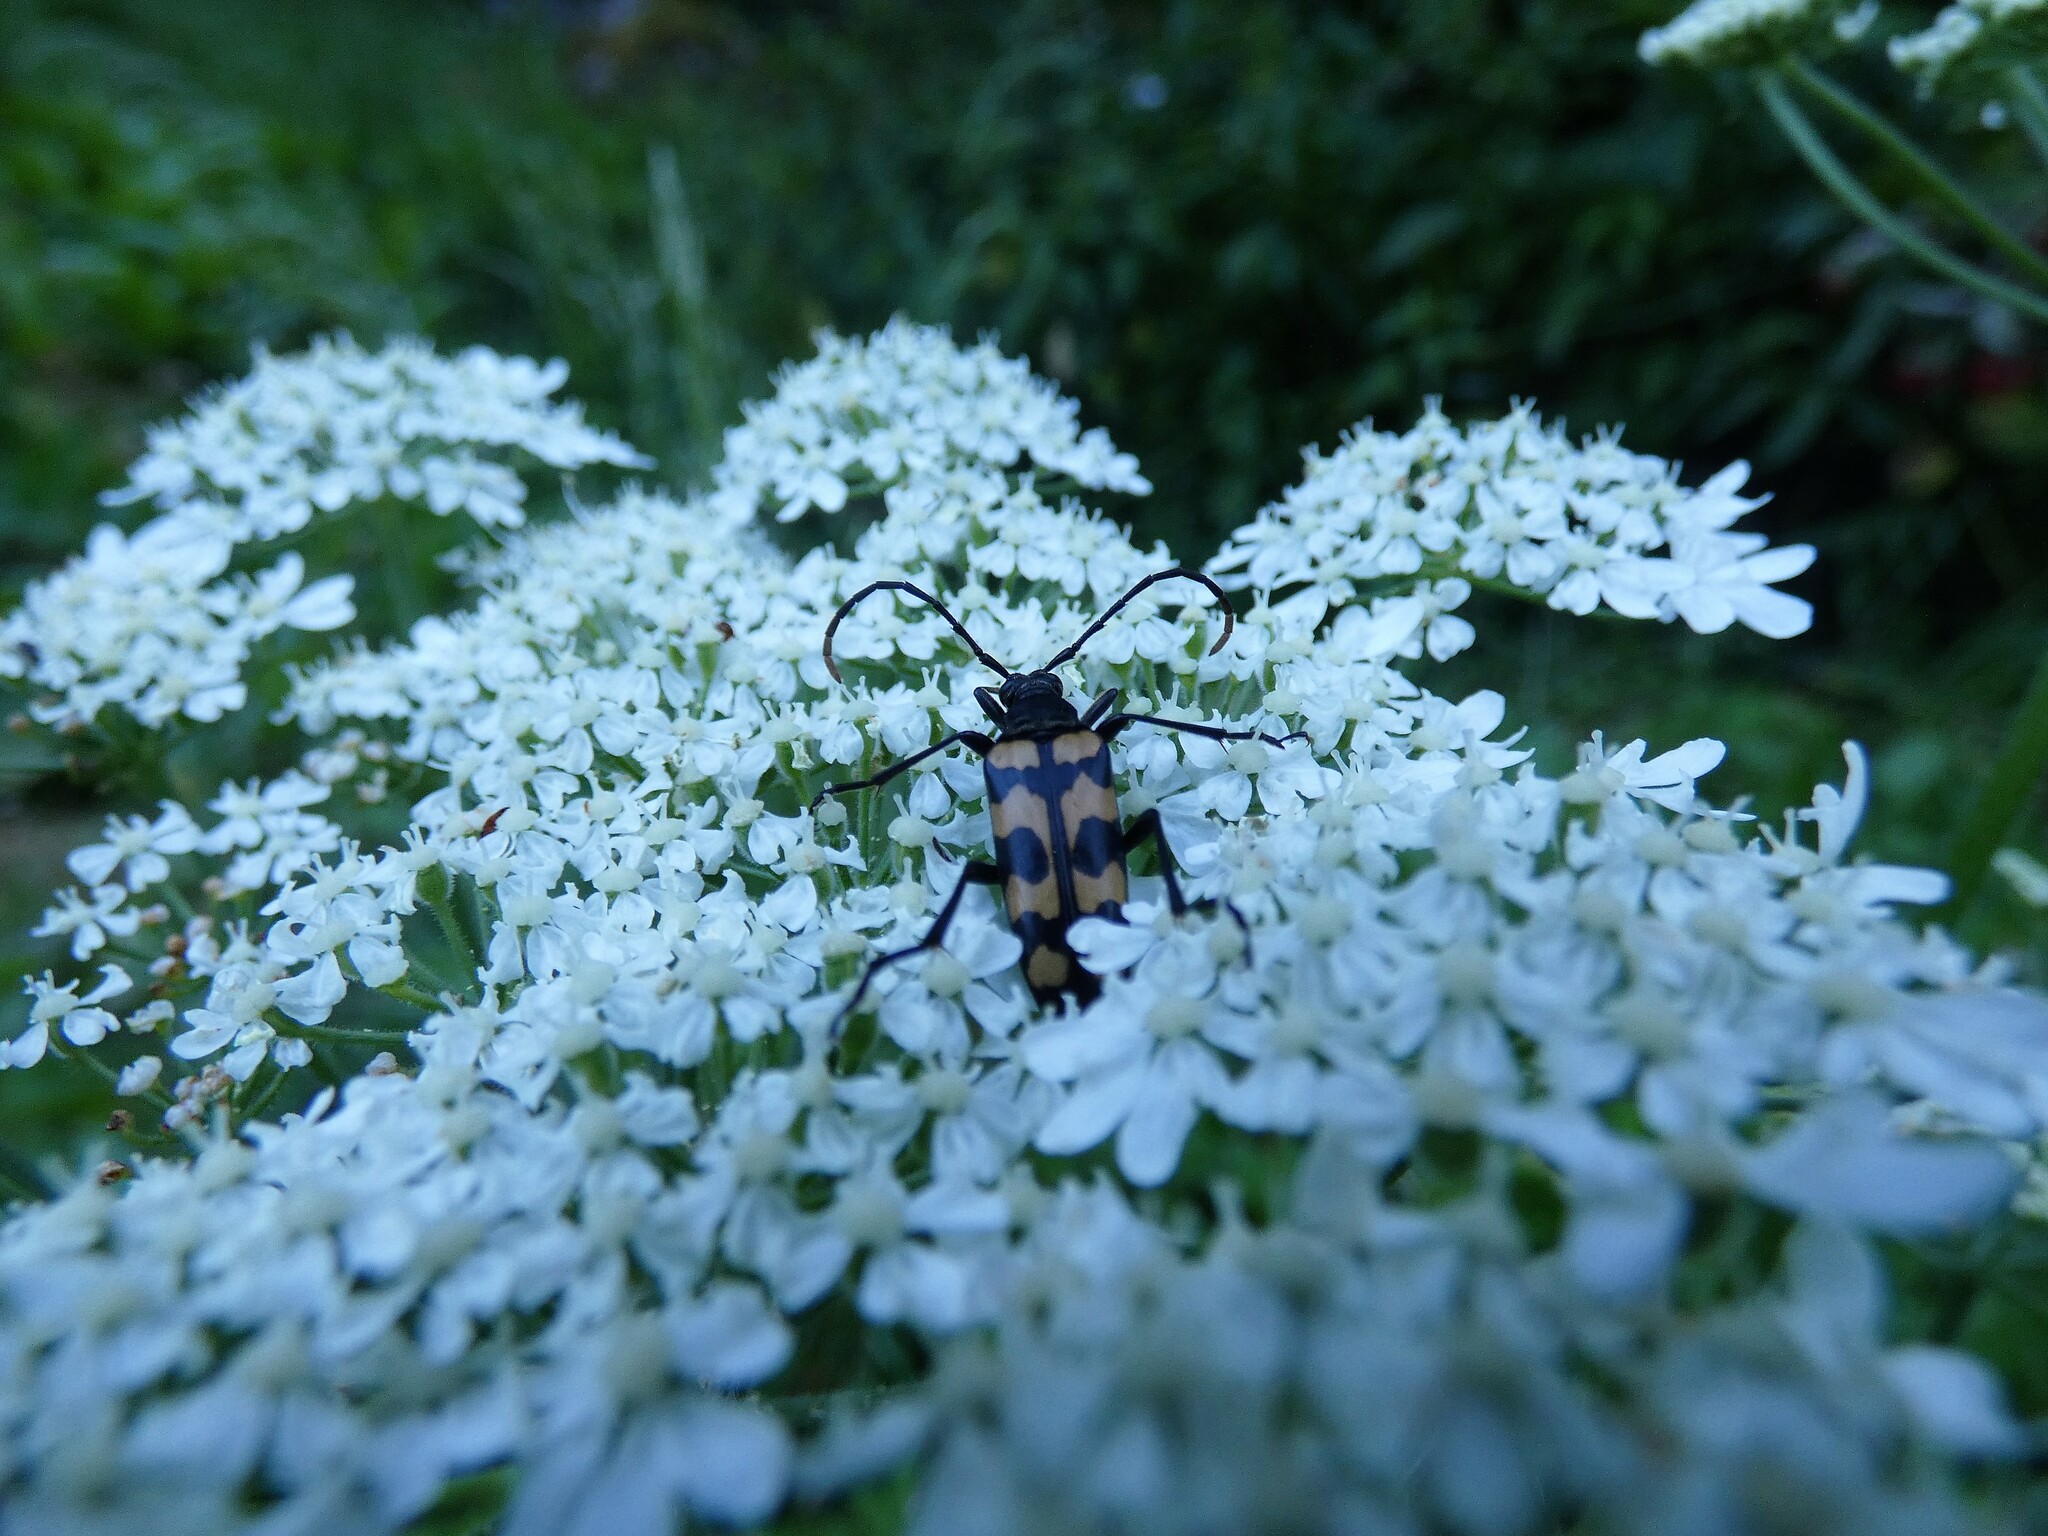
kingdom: Animalia
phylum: Arthropoda
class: Insecta
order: Coleoptera
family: Cerambycidae
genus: Leptura
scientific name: Leptura quadrifasciata
